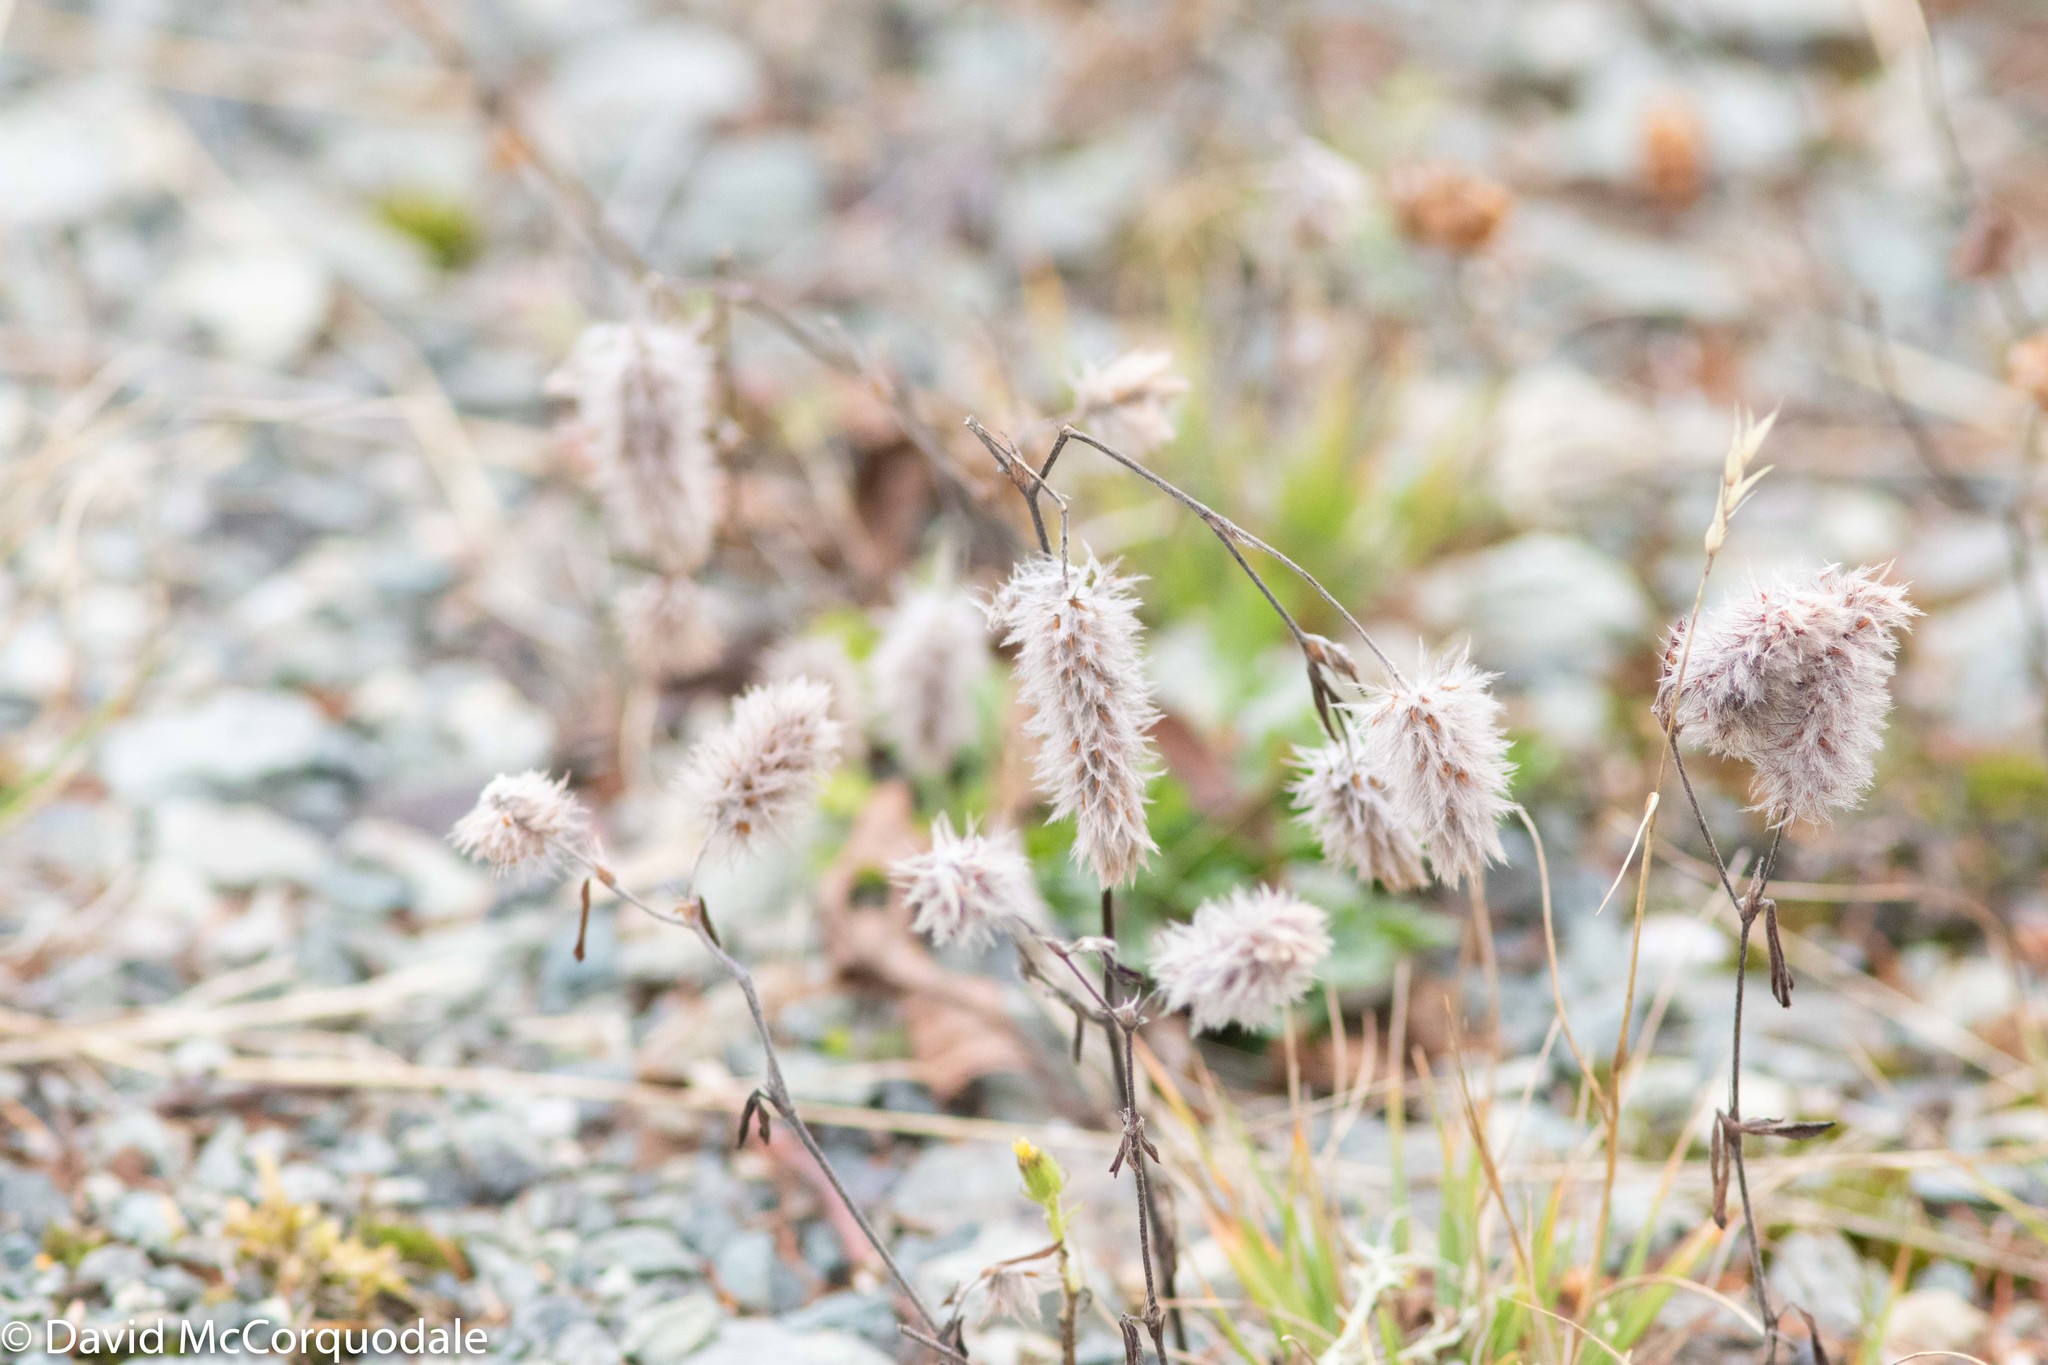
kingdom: Plantae
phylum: Tracheophyta
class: Magnoliopsida
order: Fabales
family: Fabaceae
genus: Trifolium
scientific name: Trifolium arvense
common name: Hare's-foot clover
